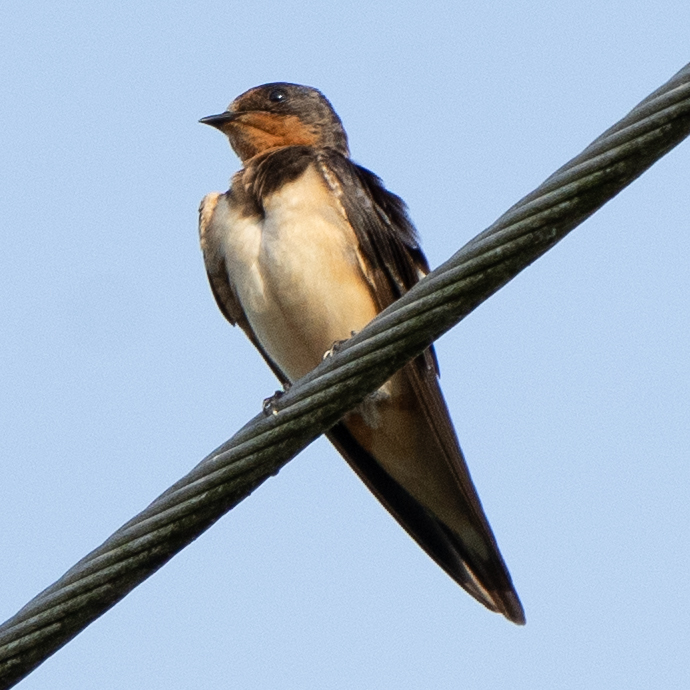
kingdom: Animalia
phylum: Chordata
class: Aves
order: Passeriformes
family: Hirundinidae
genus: Hirundo
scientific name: Hirundo rustica
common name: Barn swallow
